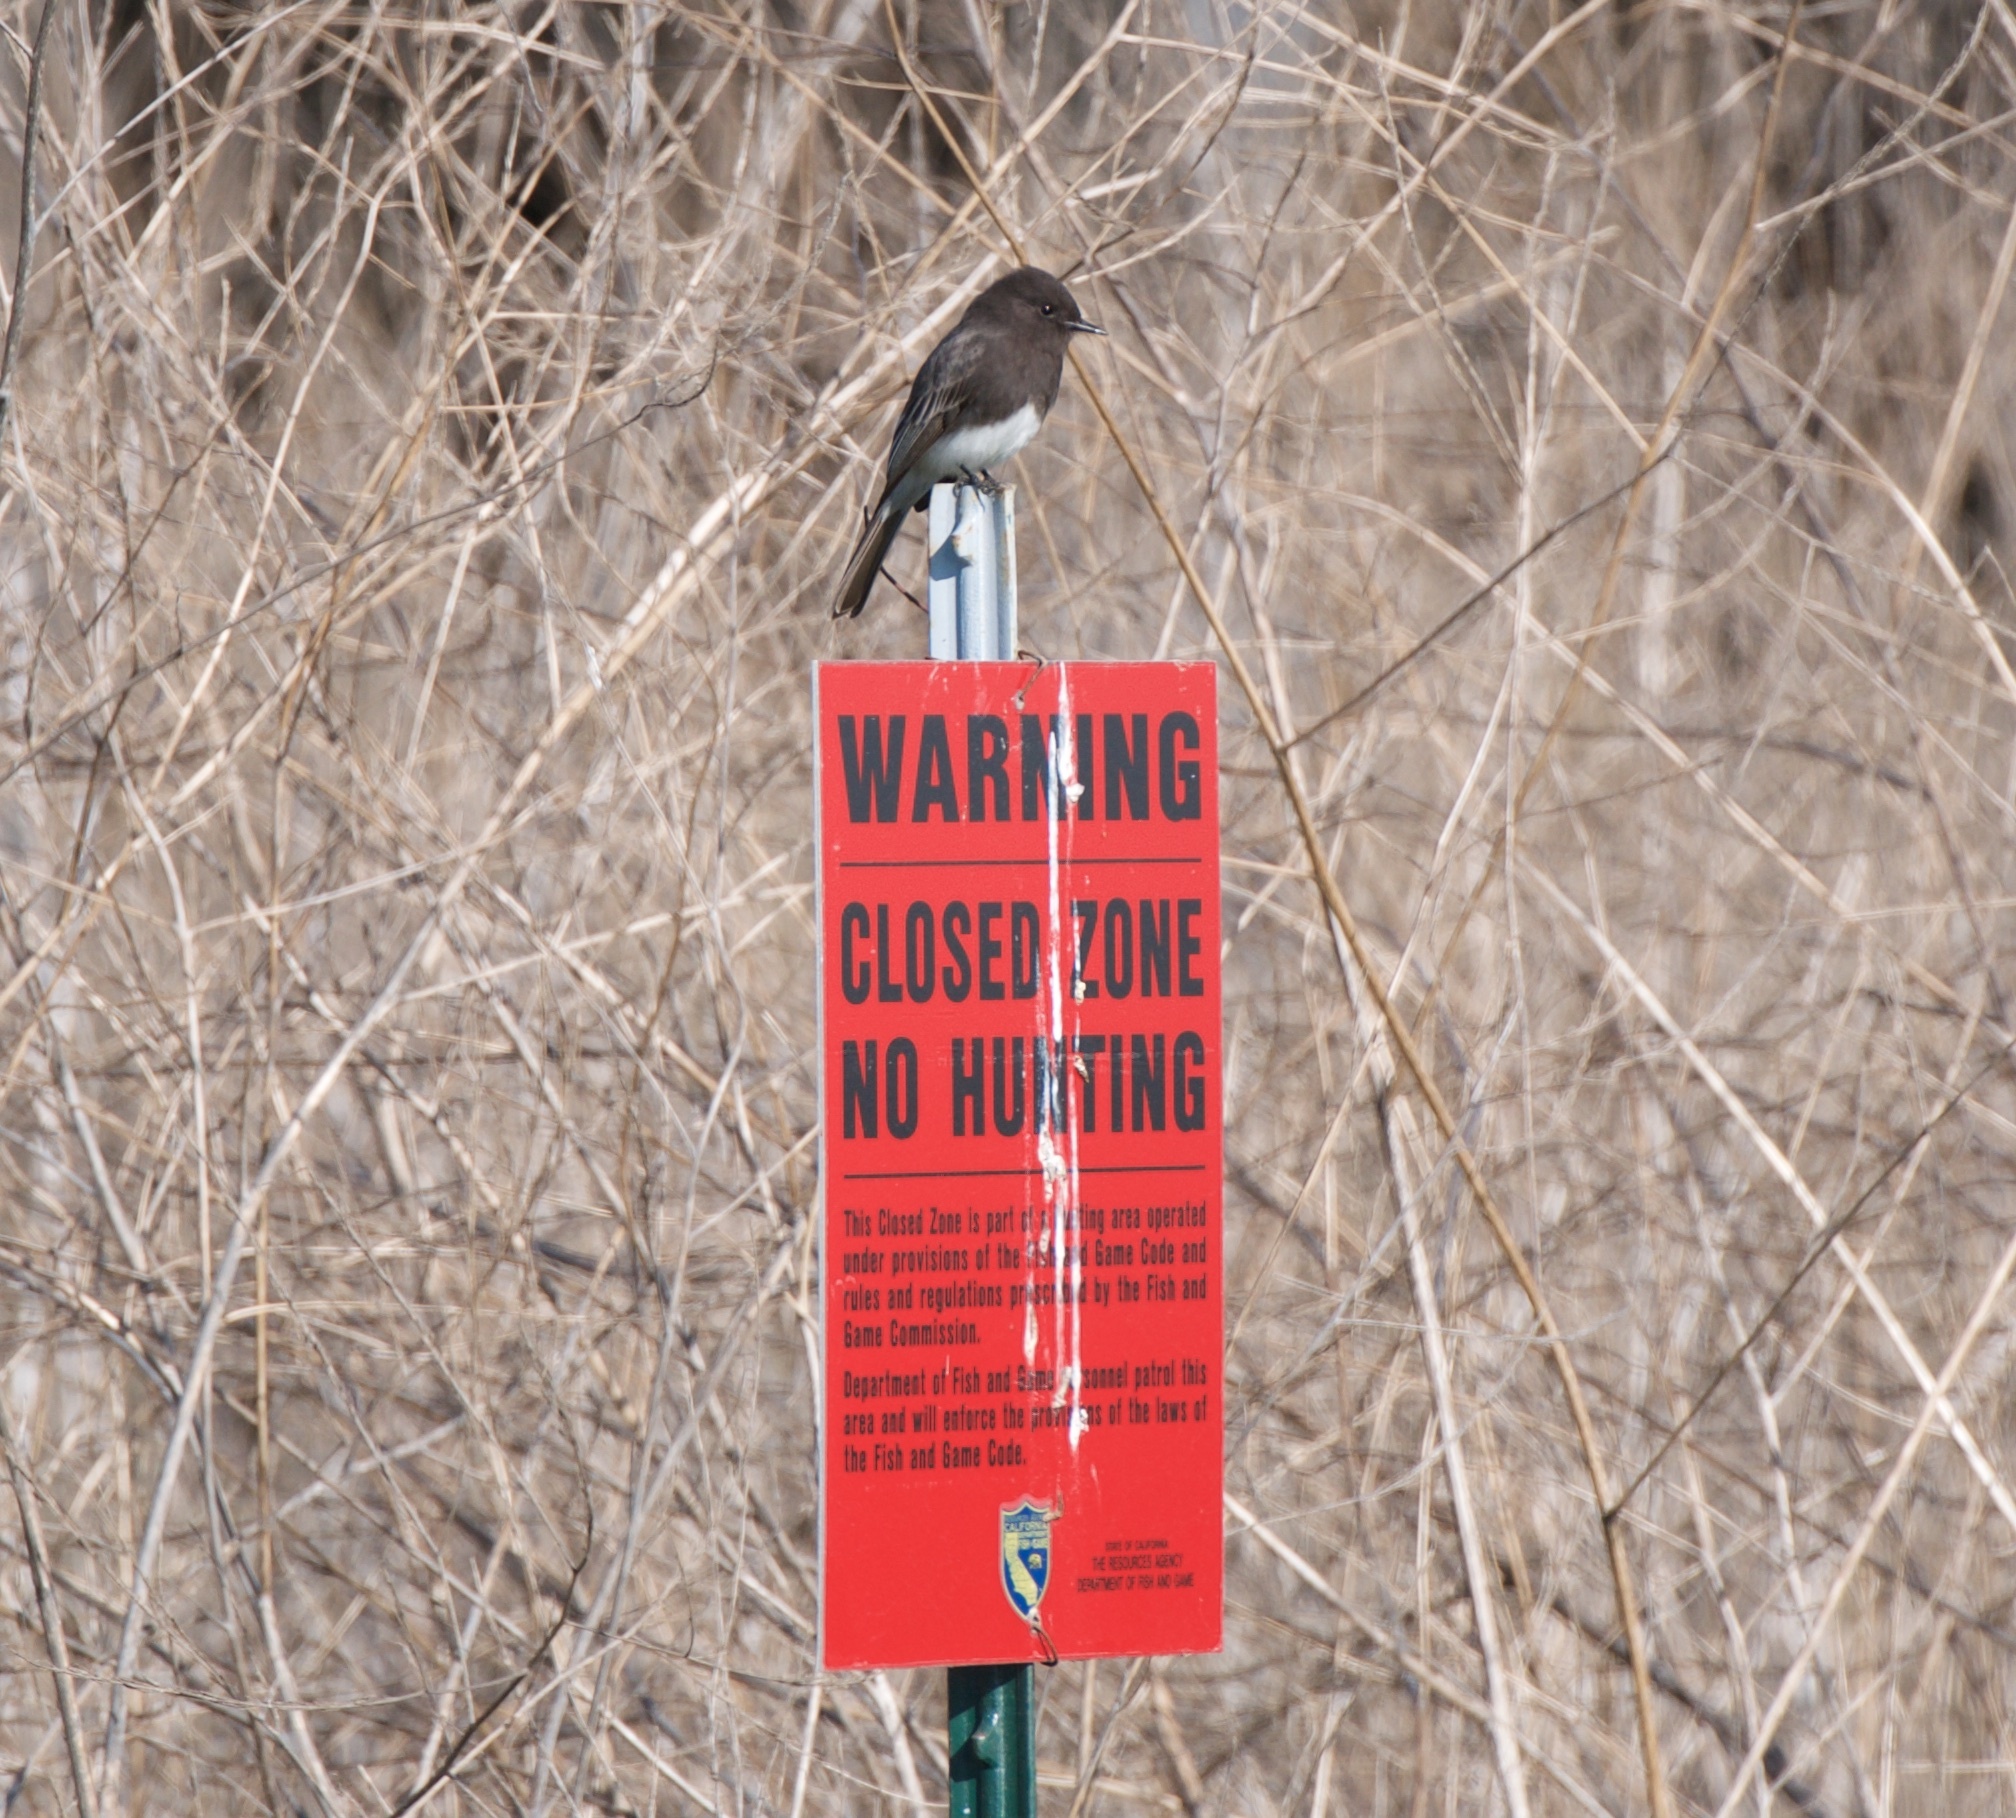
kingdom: Animalia
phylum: Chordata
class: Aves
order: Passeriformes
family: Tyrannidae
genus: Sayornis
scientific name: Sayornis nigricans
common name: Black phoebe
